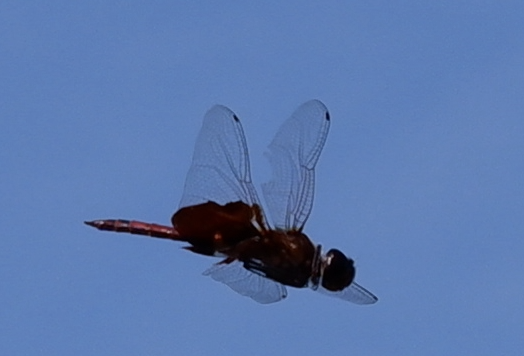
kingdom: Animalia
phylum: Arthropoda
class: Insecta
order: Odonata
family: Libellulidae
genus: Tramea
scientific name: Tramea carolina
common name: Carolina saddlebags
